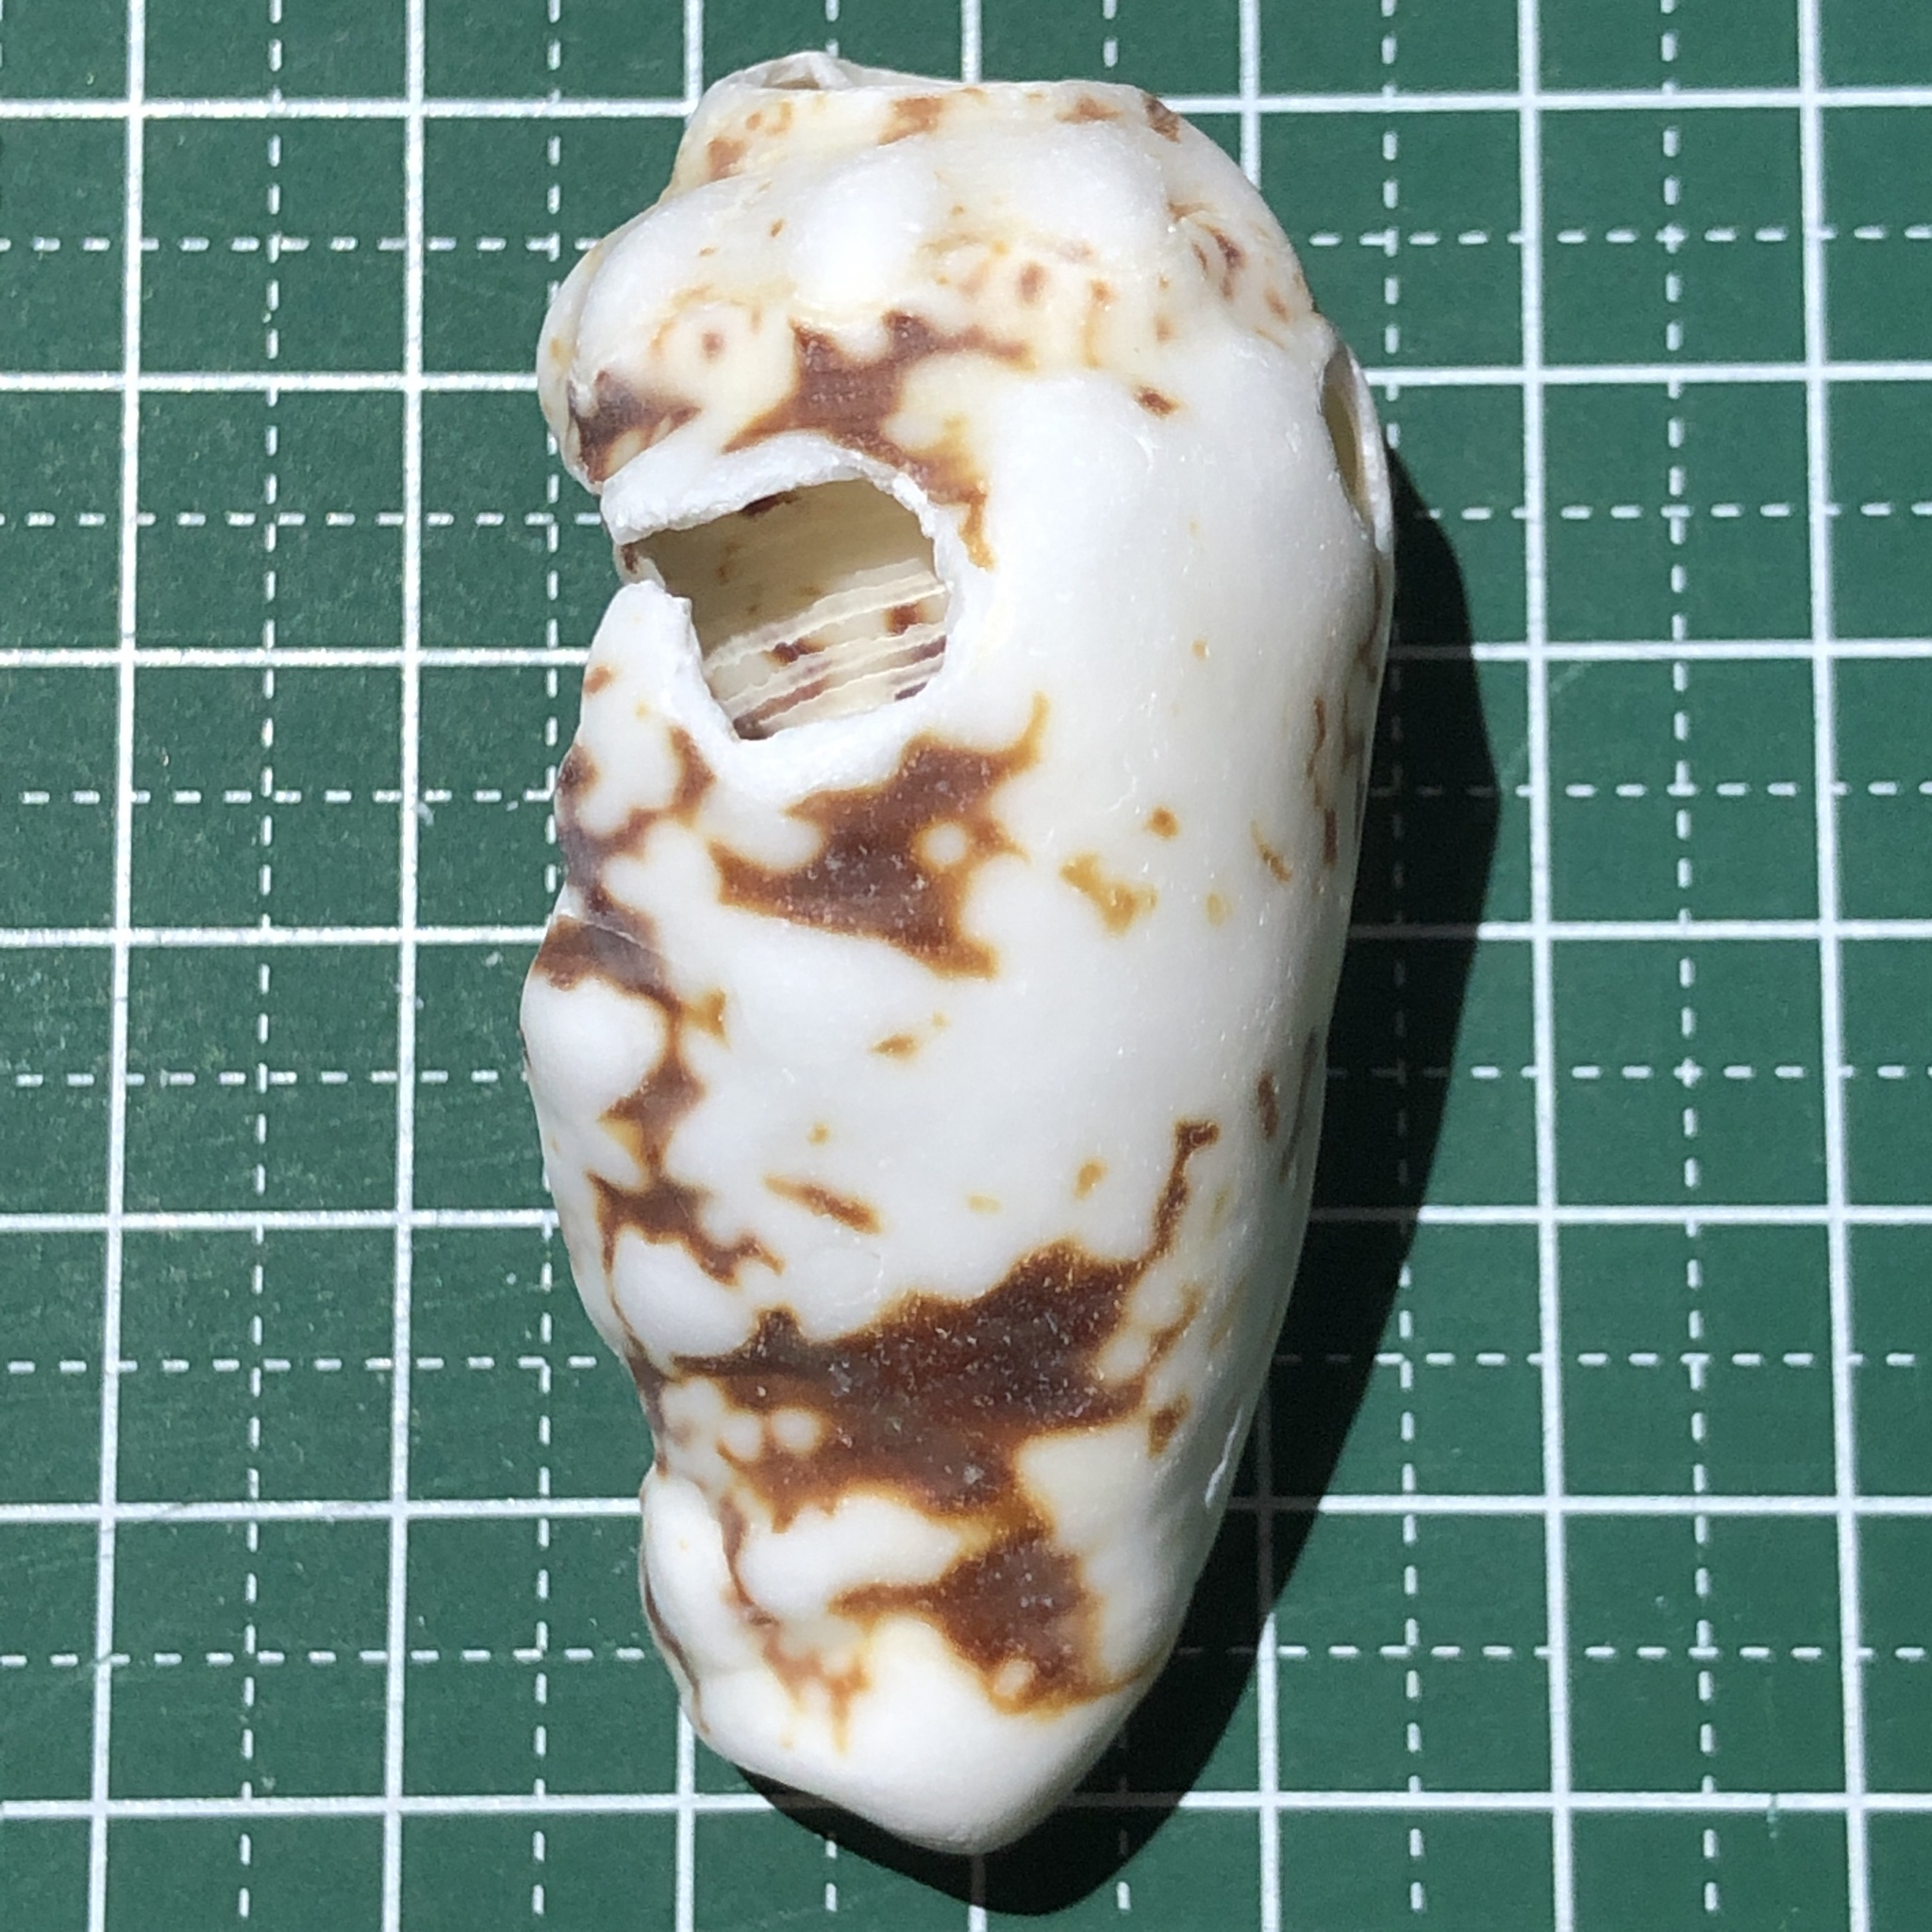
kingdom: Animalia
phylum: Mollusca
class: Gastropoda
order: Littorinimorpha
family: Strombidae
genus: Lentigo
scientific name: Lentigo lentiginosus
